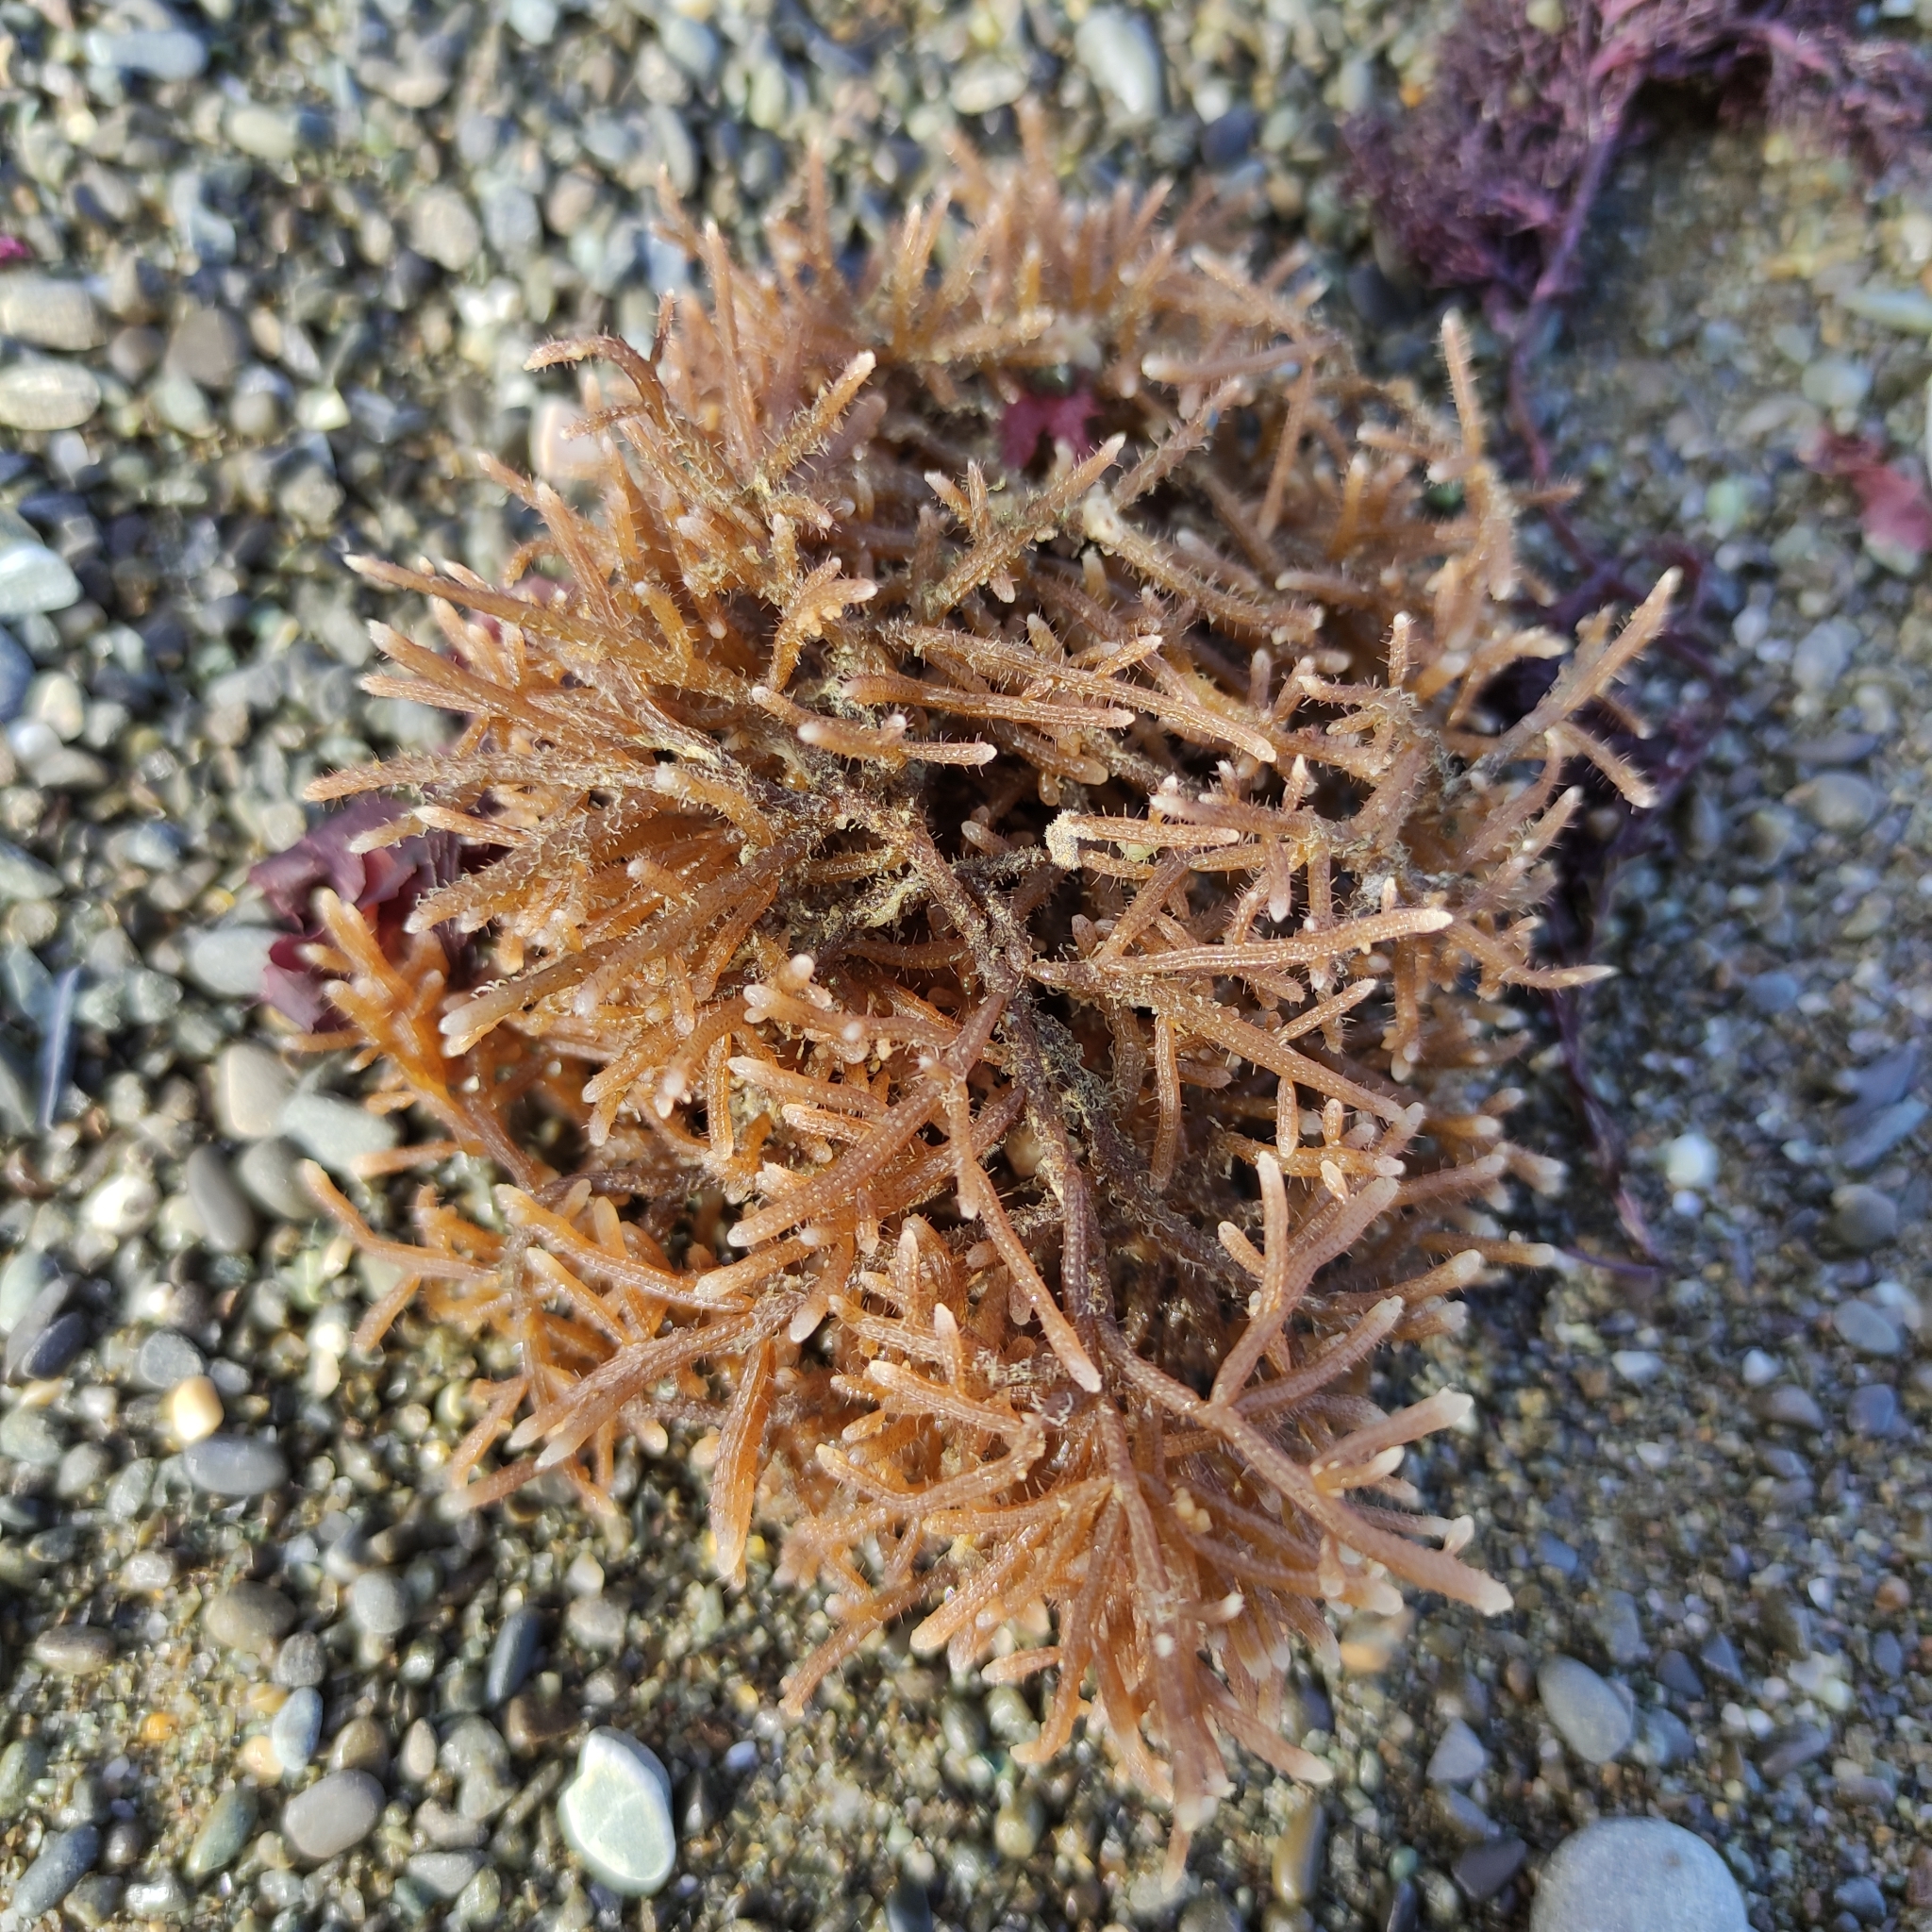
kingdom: Animalia
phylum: Bryozoa
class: Gymnolaemata
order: Ctenostomatida
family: Flustrellidridae
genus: Elzerina
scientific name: Elzerina binderi
